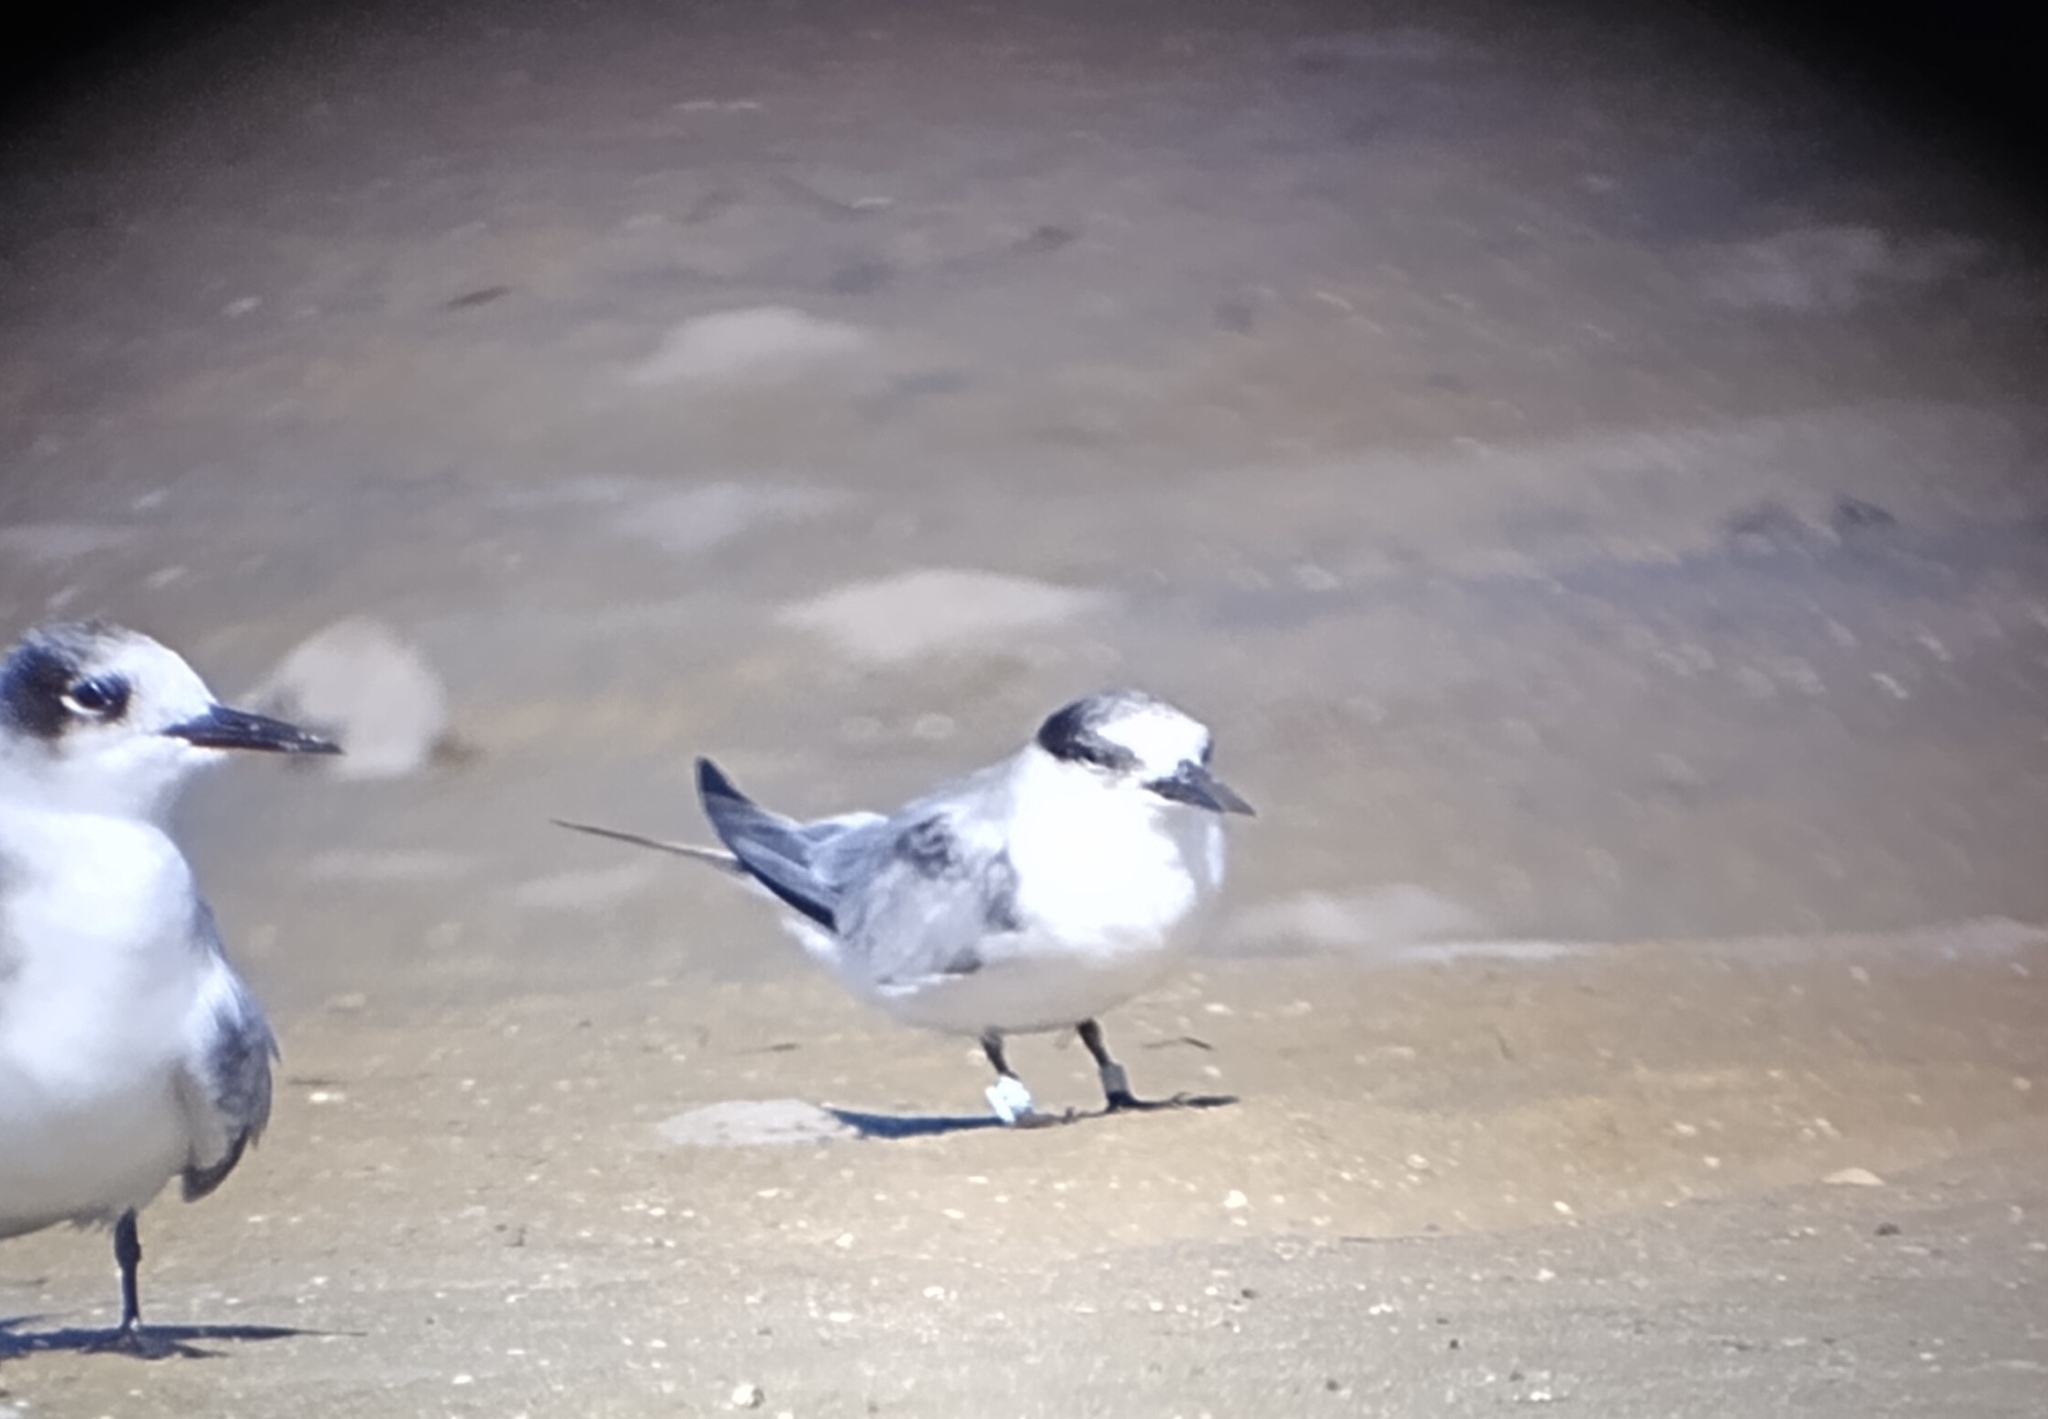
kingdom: Animalia
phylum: Chordata
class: Aves
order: Charadriiformes
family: Laridae
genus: Sternula
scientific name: Sternula antillarum
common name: Least tern
